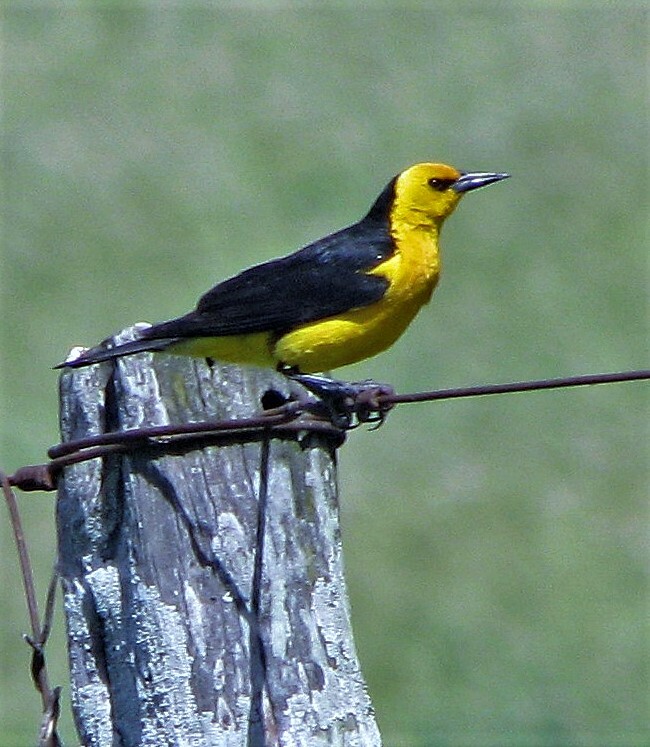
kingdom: Animalia
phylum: Chordata
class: Aves
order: Passeriformes
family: Icteridae
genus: Xanthopsar
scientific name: Xanthopsar flavus
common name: Saffron-cowled blackbird
